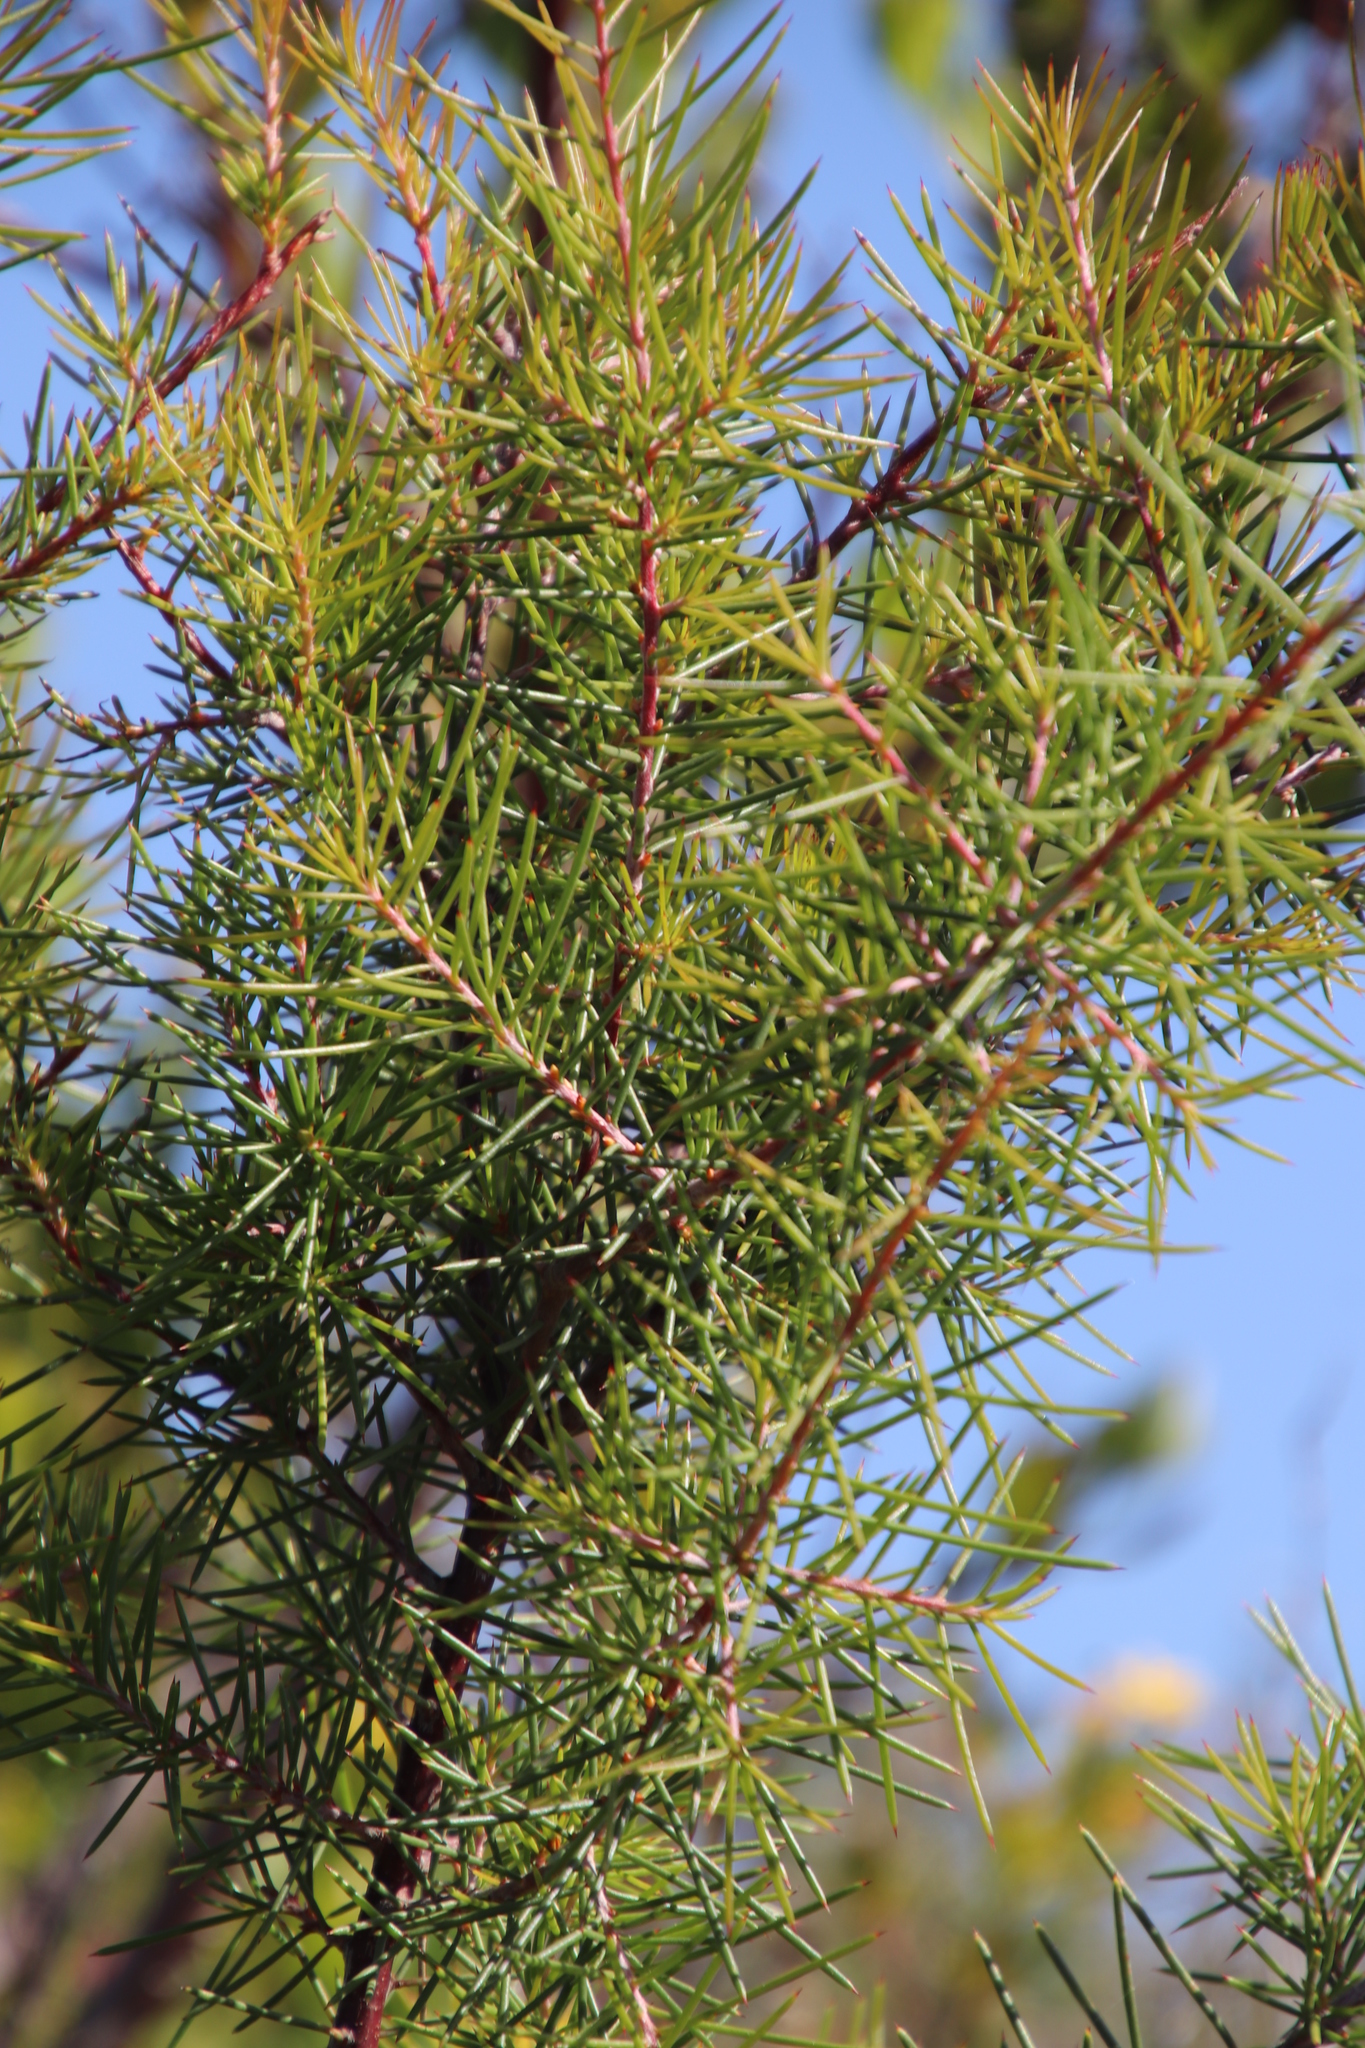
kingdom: Plantae
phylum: Tracheophyta
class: Magnoliopsida
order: Proteales
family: Proteaceae
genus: Hakea
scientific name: Hakea sericea
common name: Needle bush
